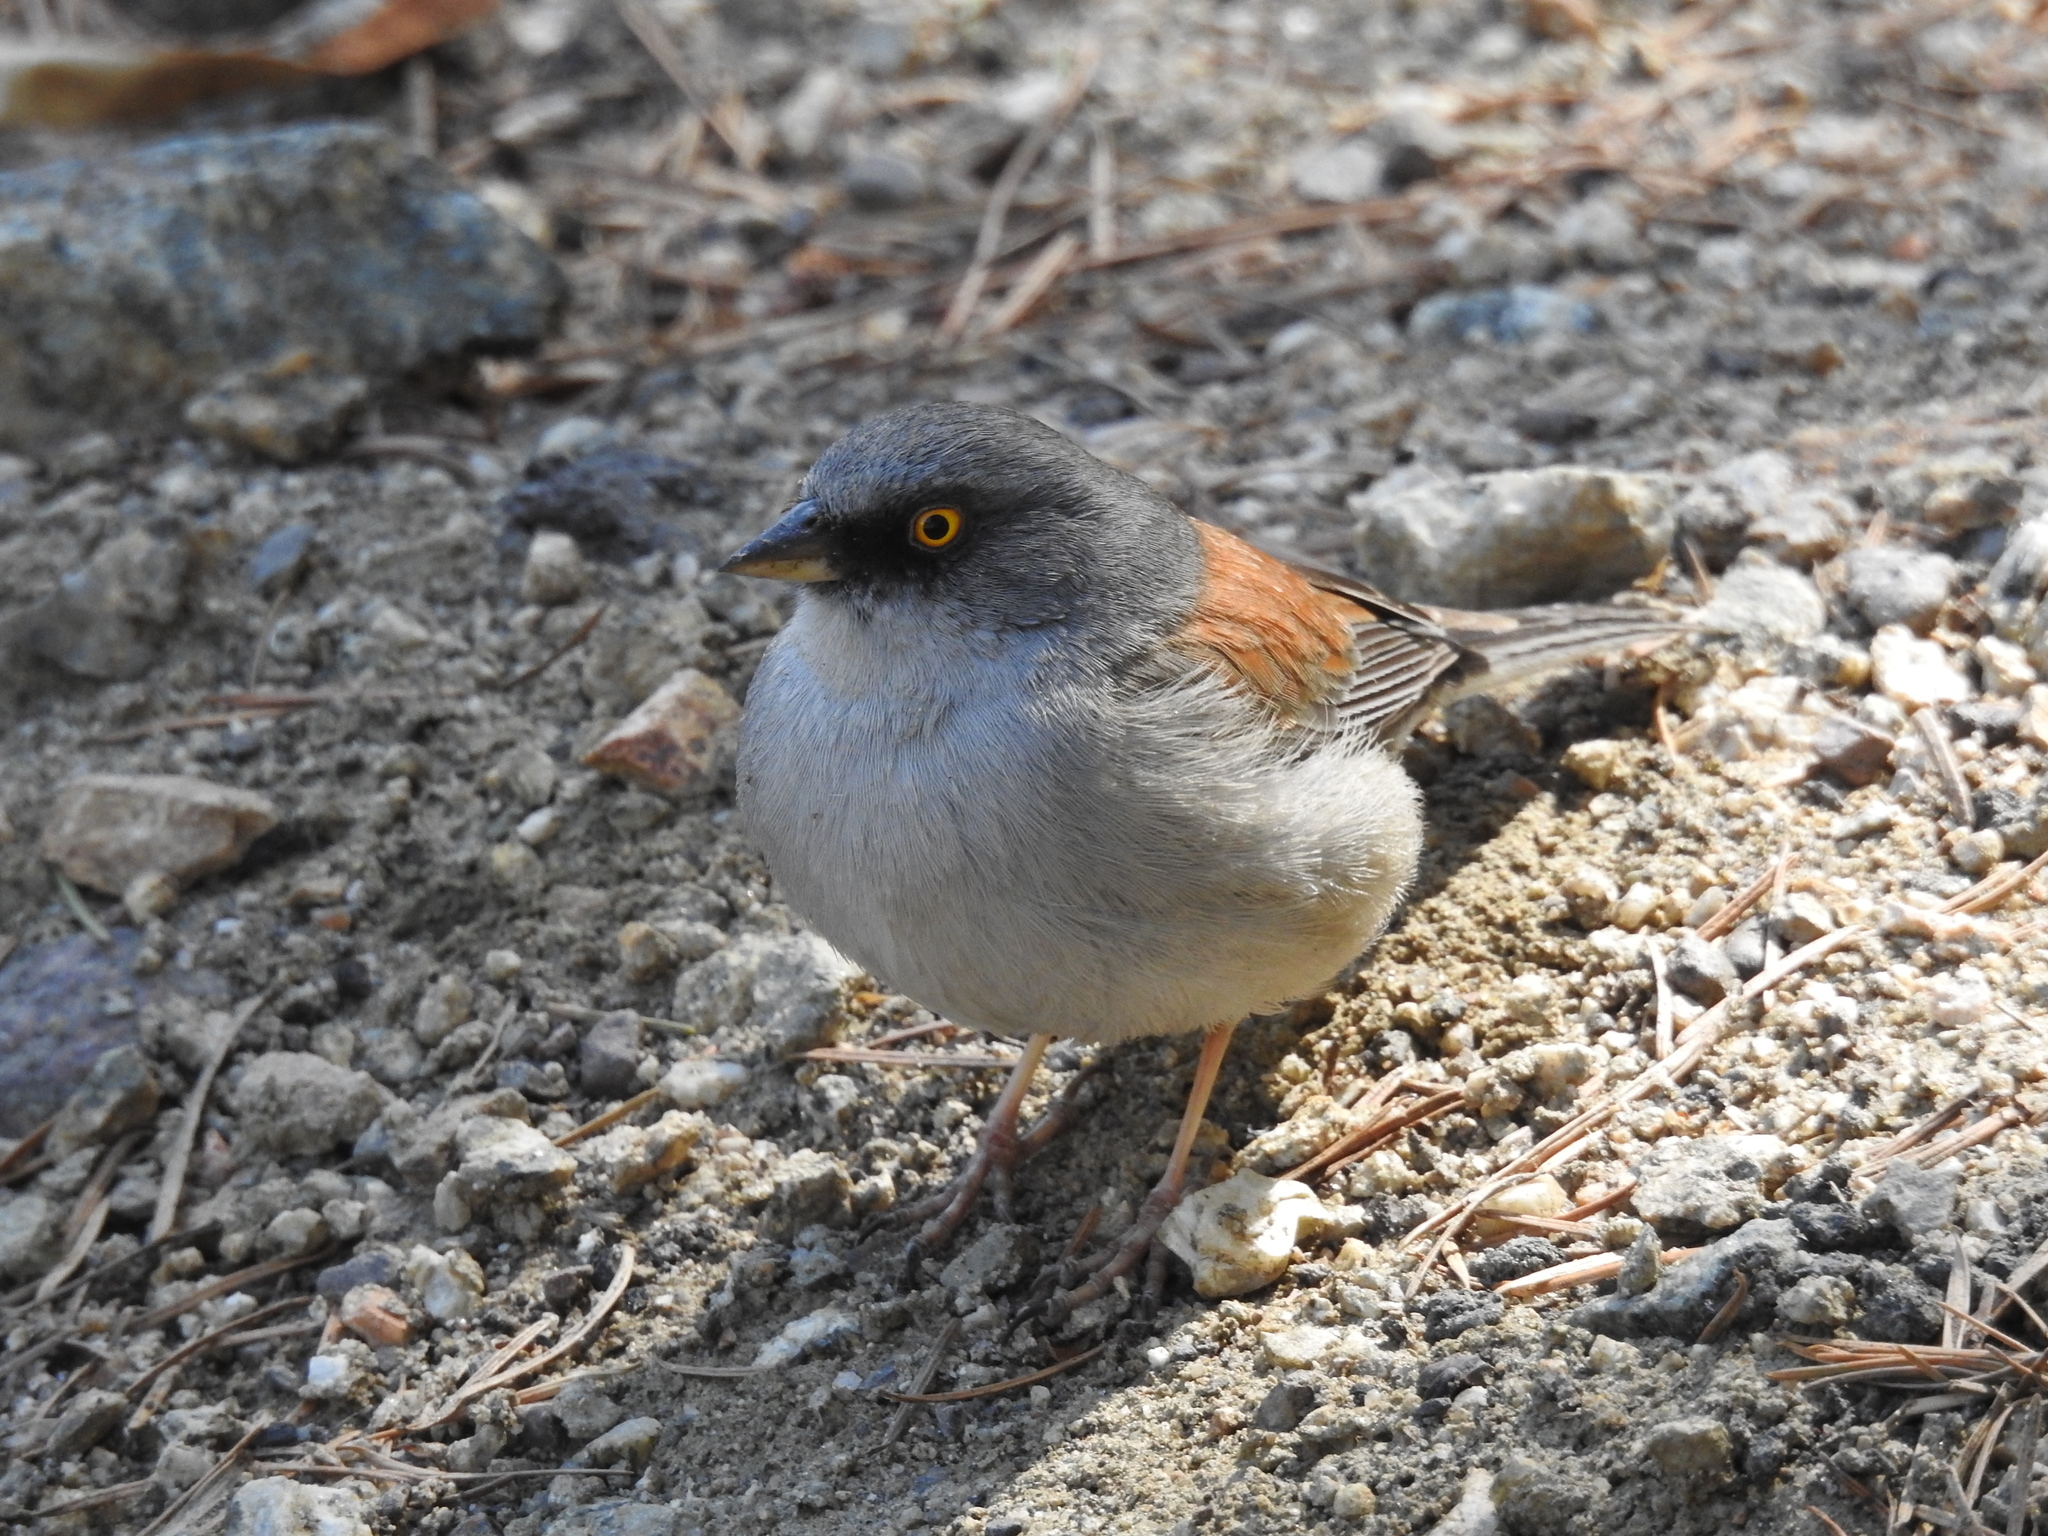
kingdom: Animalia
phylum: Chordata
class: Aves
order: Passeriformes
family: Passerellidae
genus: Junco
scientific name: Junco phaeonotus
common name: Yellow-eyed junco
